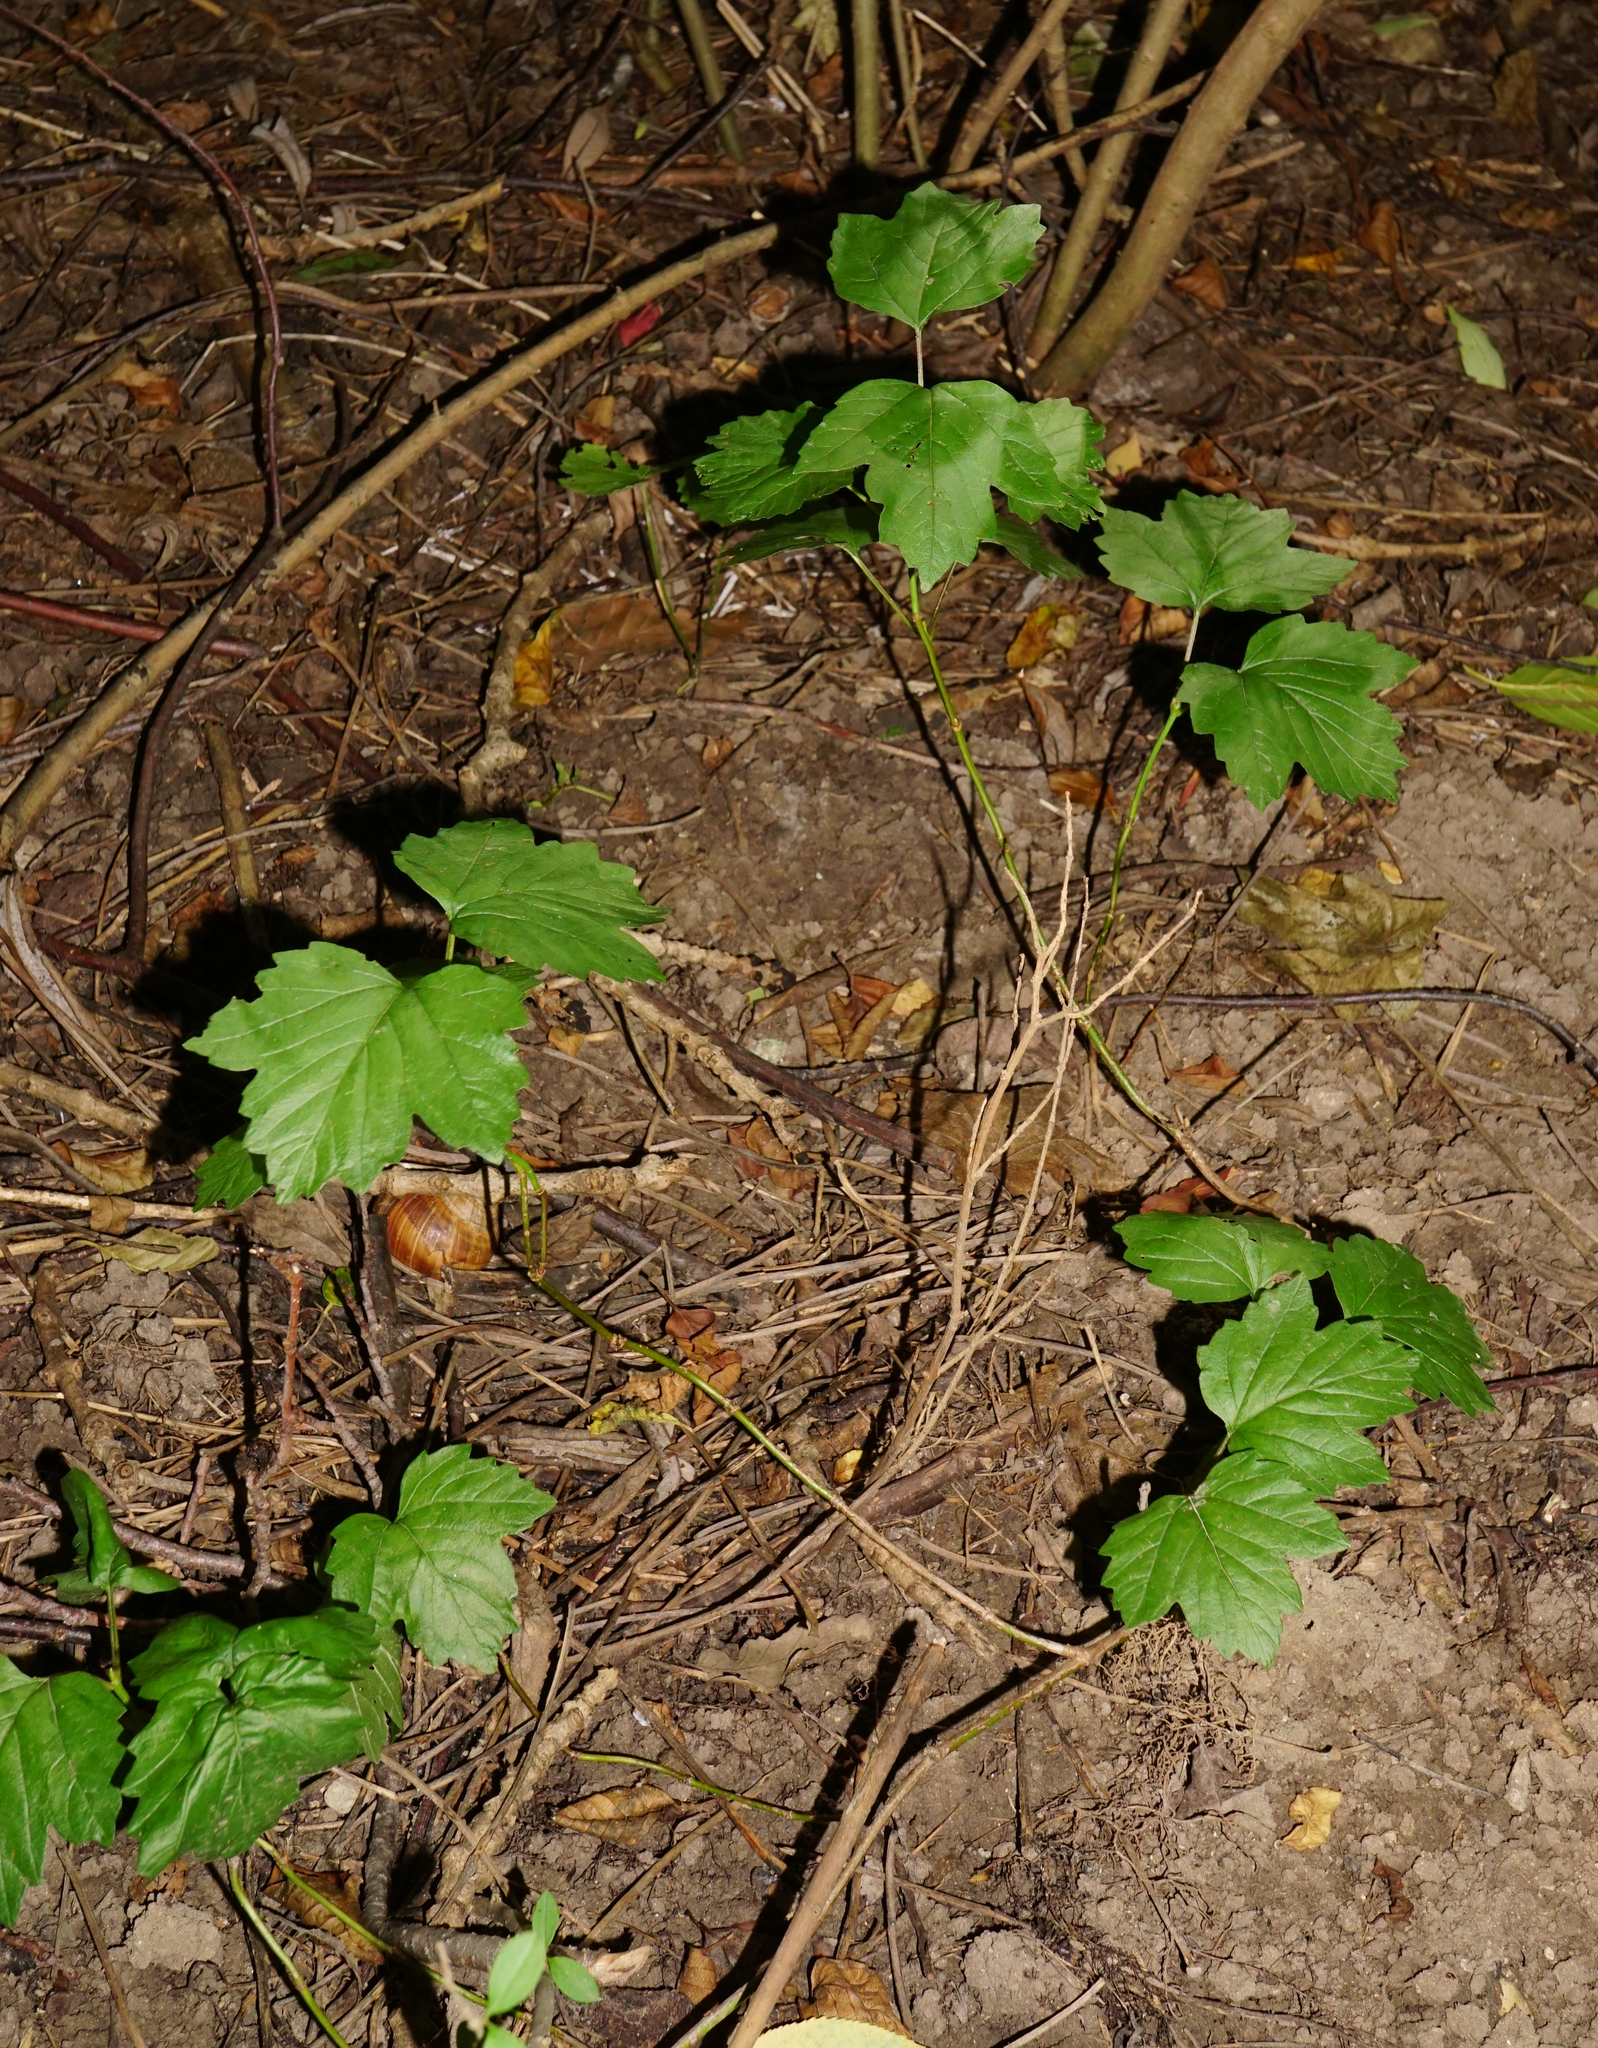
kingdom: Plantae
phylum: Tracheophyta
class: Magnoliopsida
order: Dipsacales
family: Viburnaceae
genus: Viburnum
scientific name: Viburnum opulus
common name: Guelder-rose
